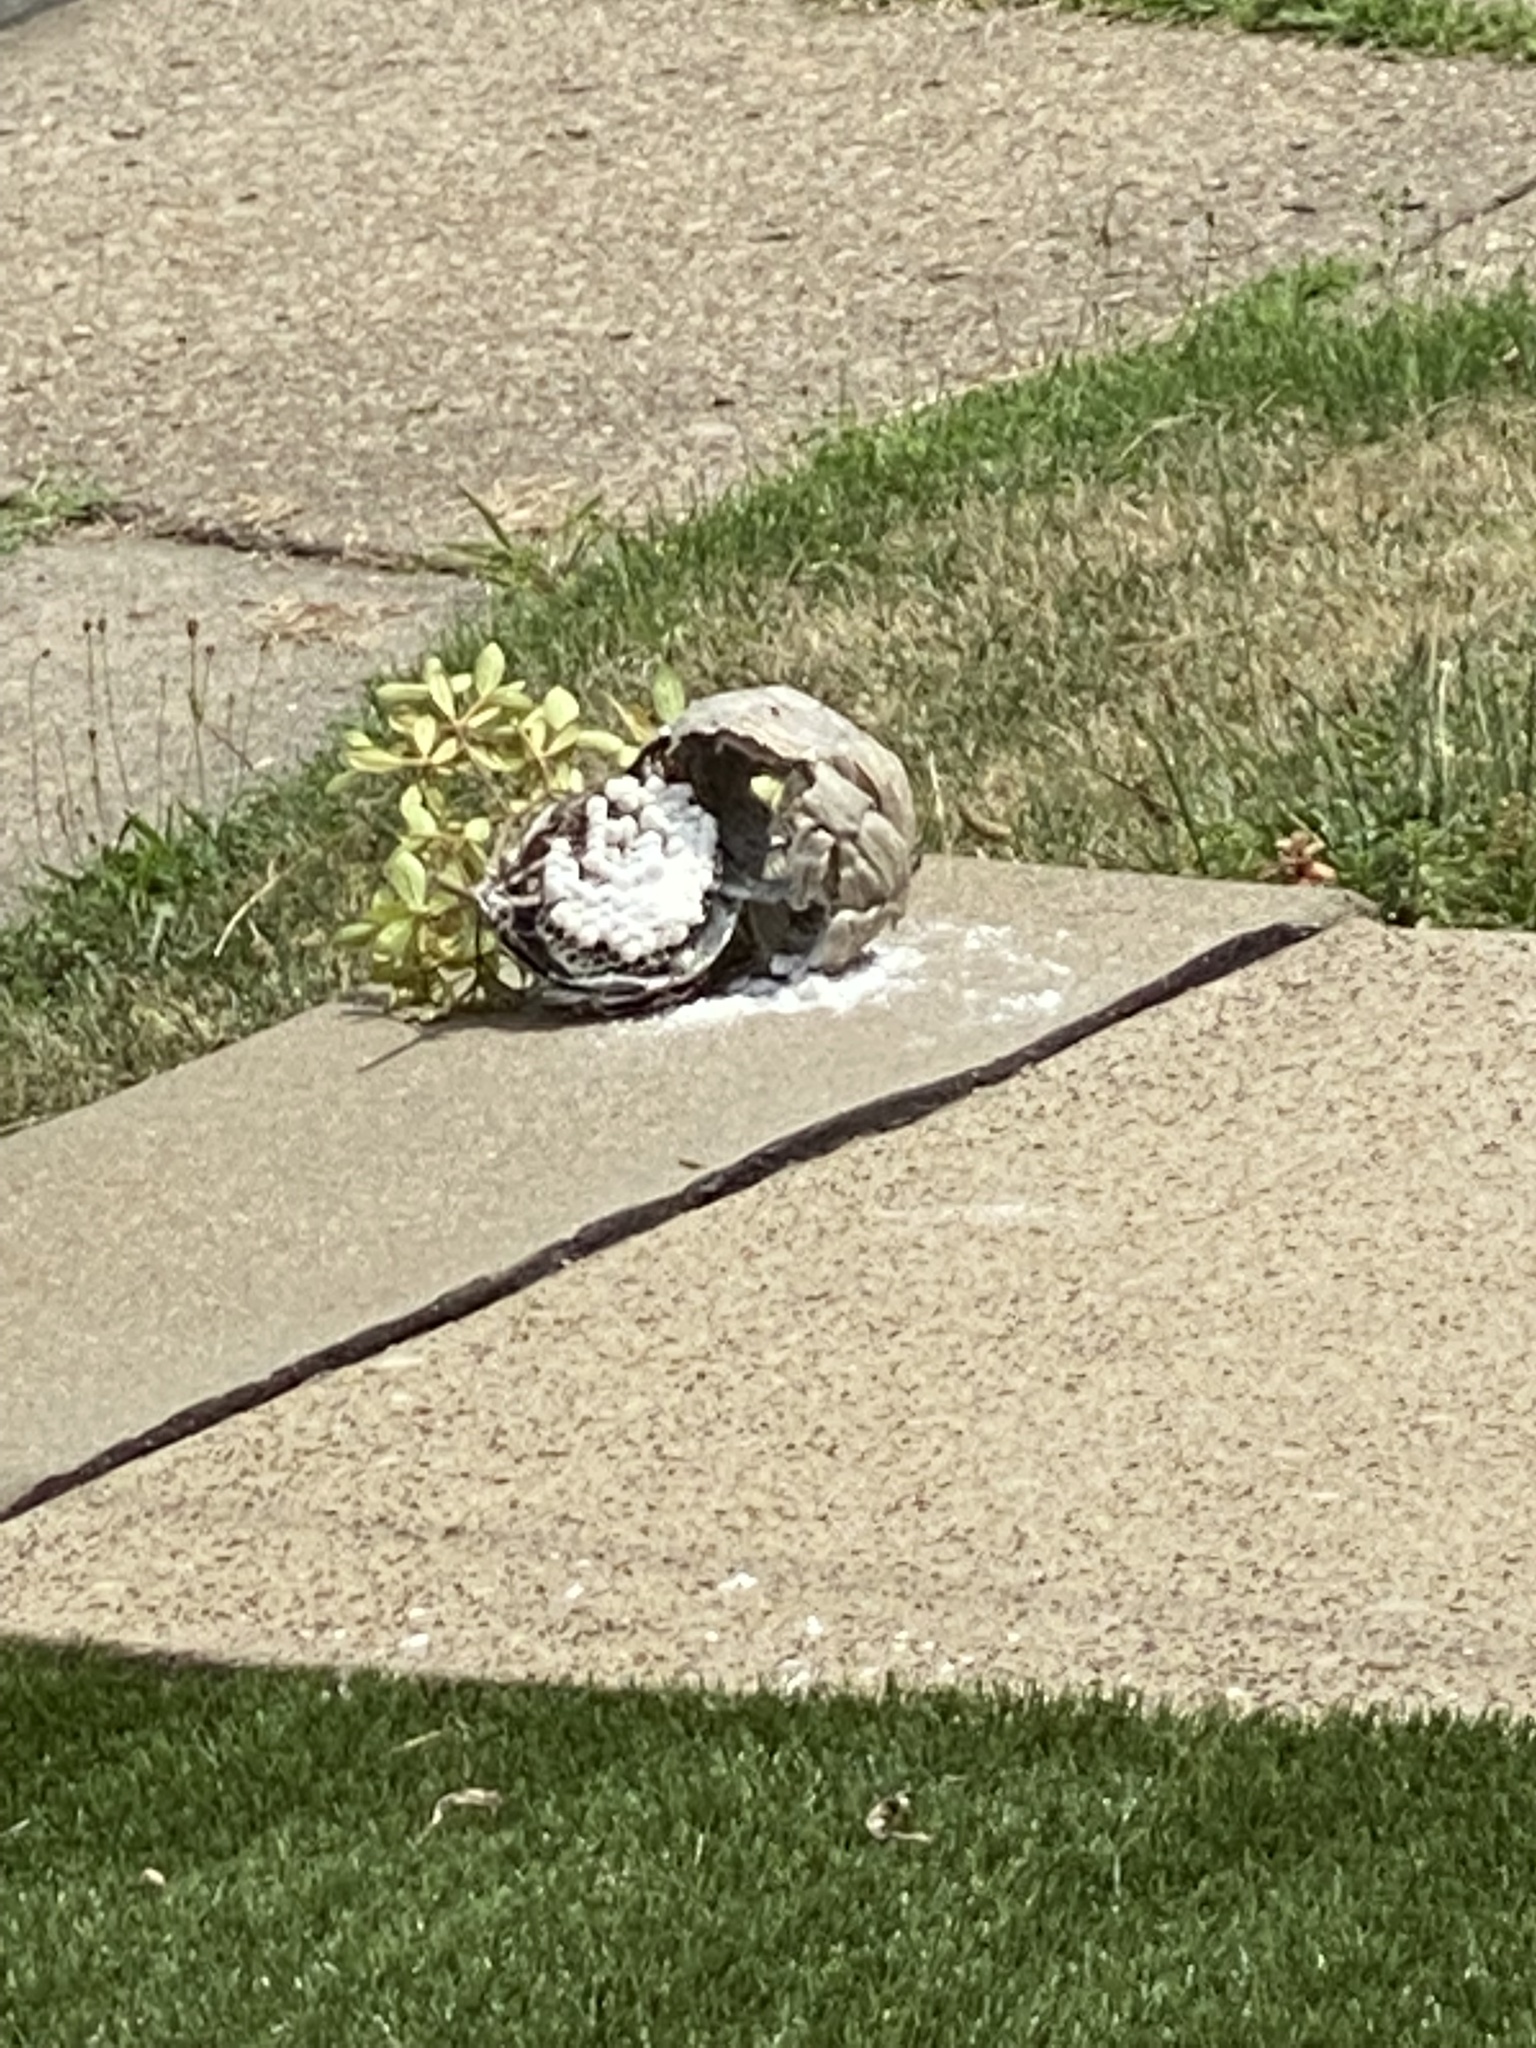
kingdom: Animalia
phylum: Arthropoda
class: Insecta
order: Hymenoptera
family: Vespidae
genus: Dolichovespula
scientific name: Dolichovespula maculata
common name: Bald-faced hornet
